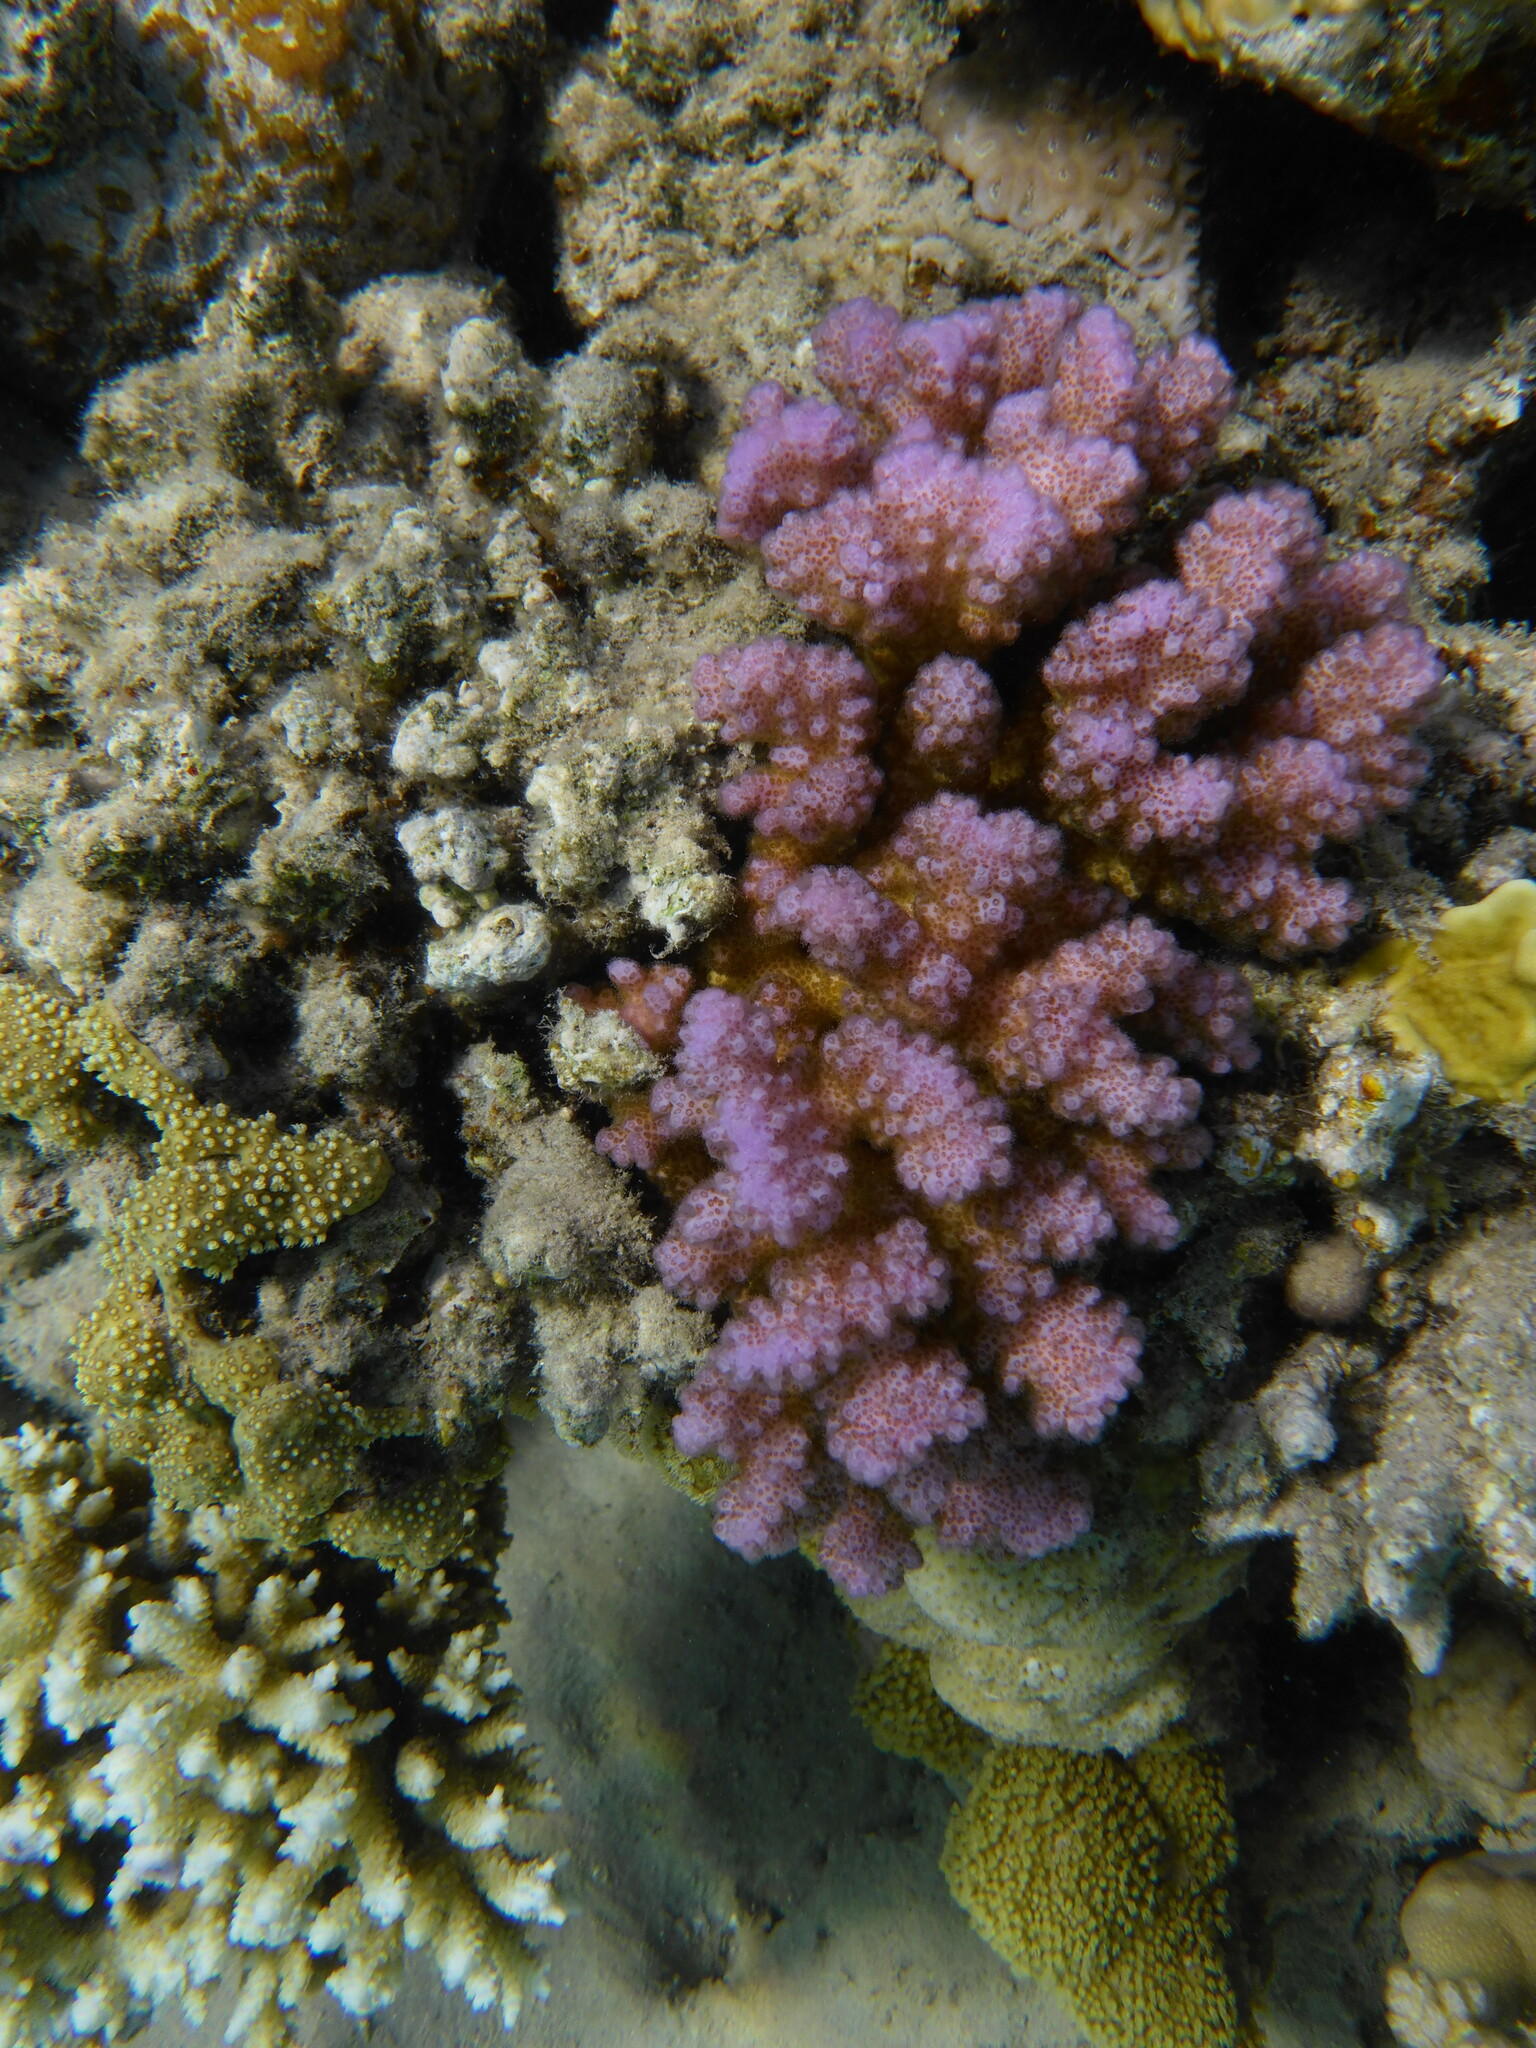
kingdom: Animalia
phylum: Cnidaria
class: Anthozoa
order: Scleractinia
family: Pocilloporidae
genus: Pocillopora
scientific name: Pocillopora verrucosa
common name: Cauliflower coral
